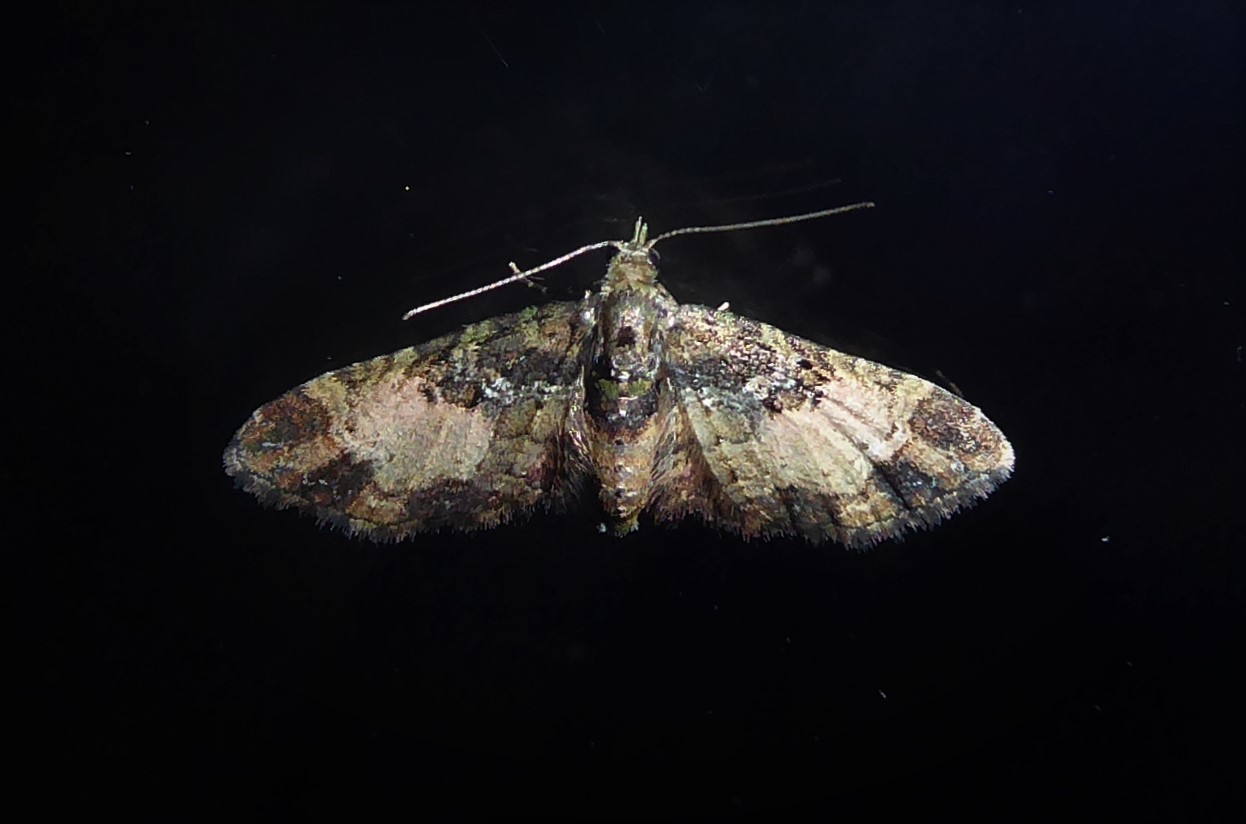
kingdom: Animalia
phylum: Arthropoda
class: Insecta
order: Lepidoptera
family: Geometridae
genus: Pasiphila
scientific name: Pasiphila sandycias
